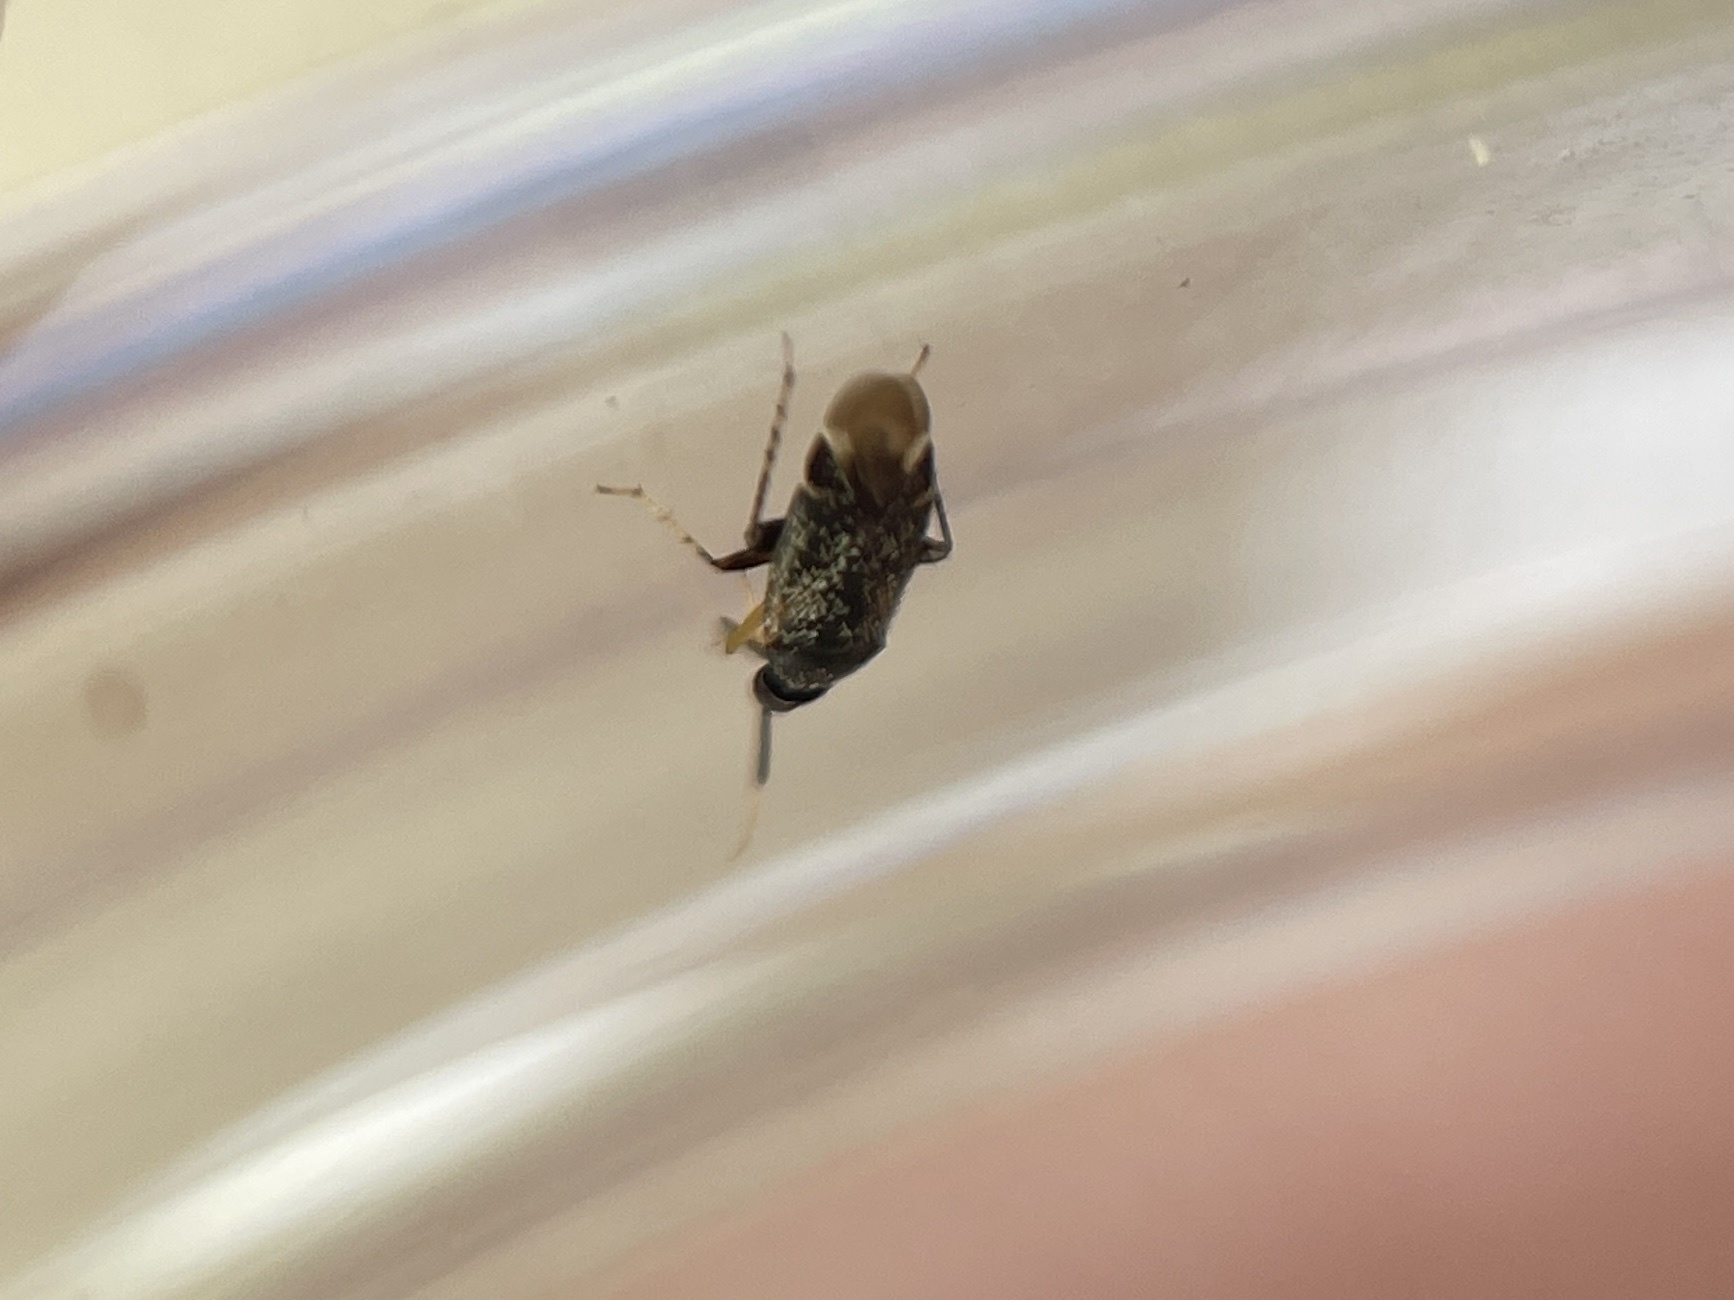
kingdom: Animalia
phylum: Arthropoda
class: Insecta
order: Hemiptera
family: Miridae
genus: Rhinacloa
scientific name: Rhinacloa forticornis
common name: Brown cotton mirid
